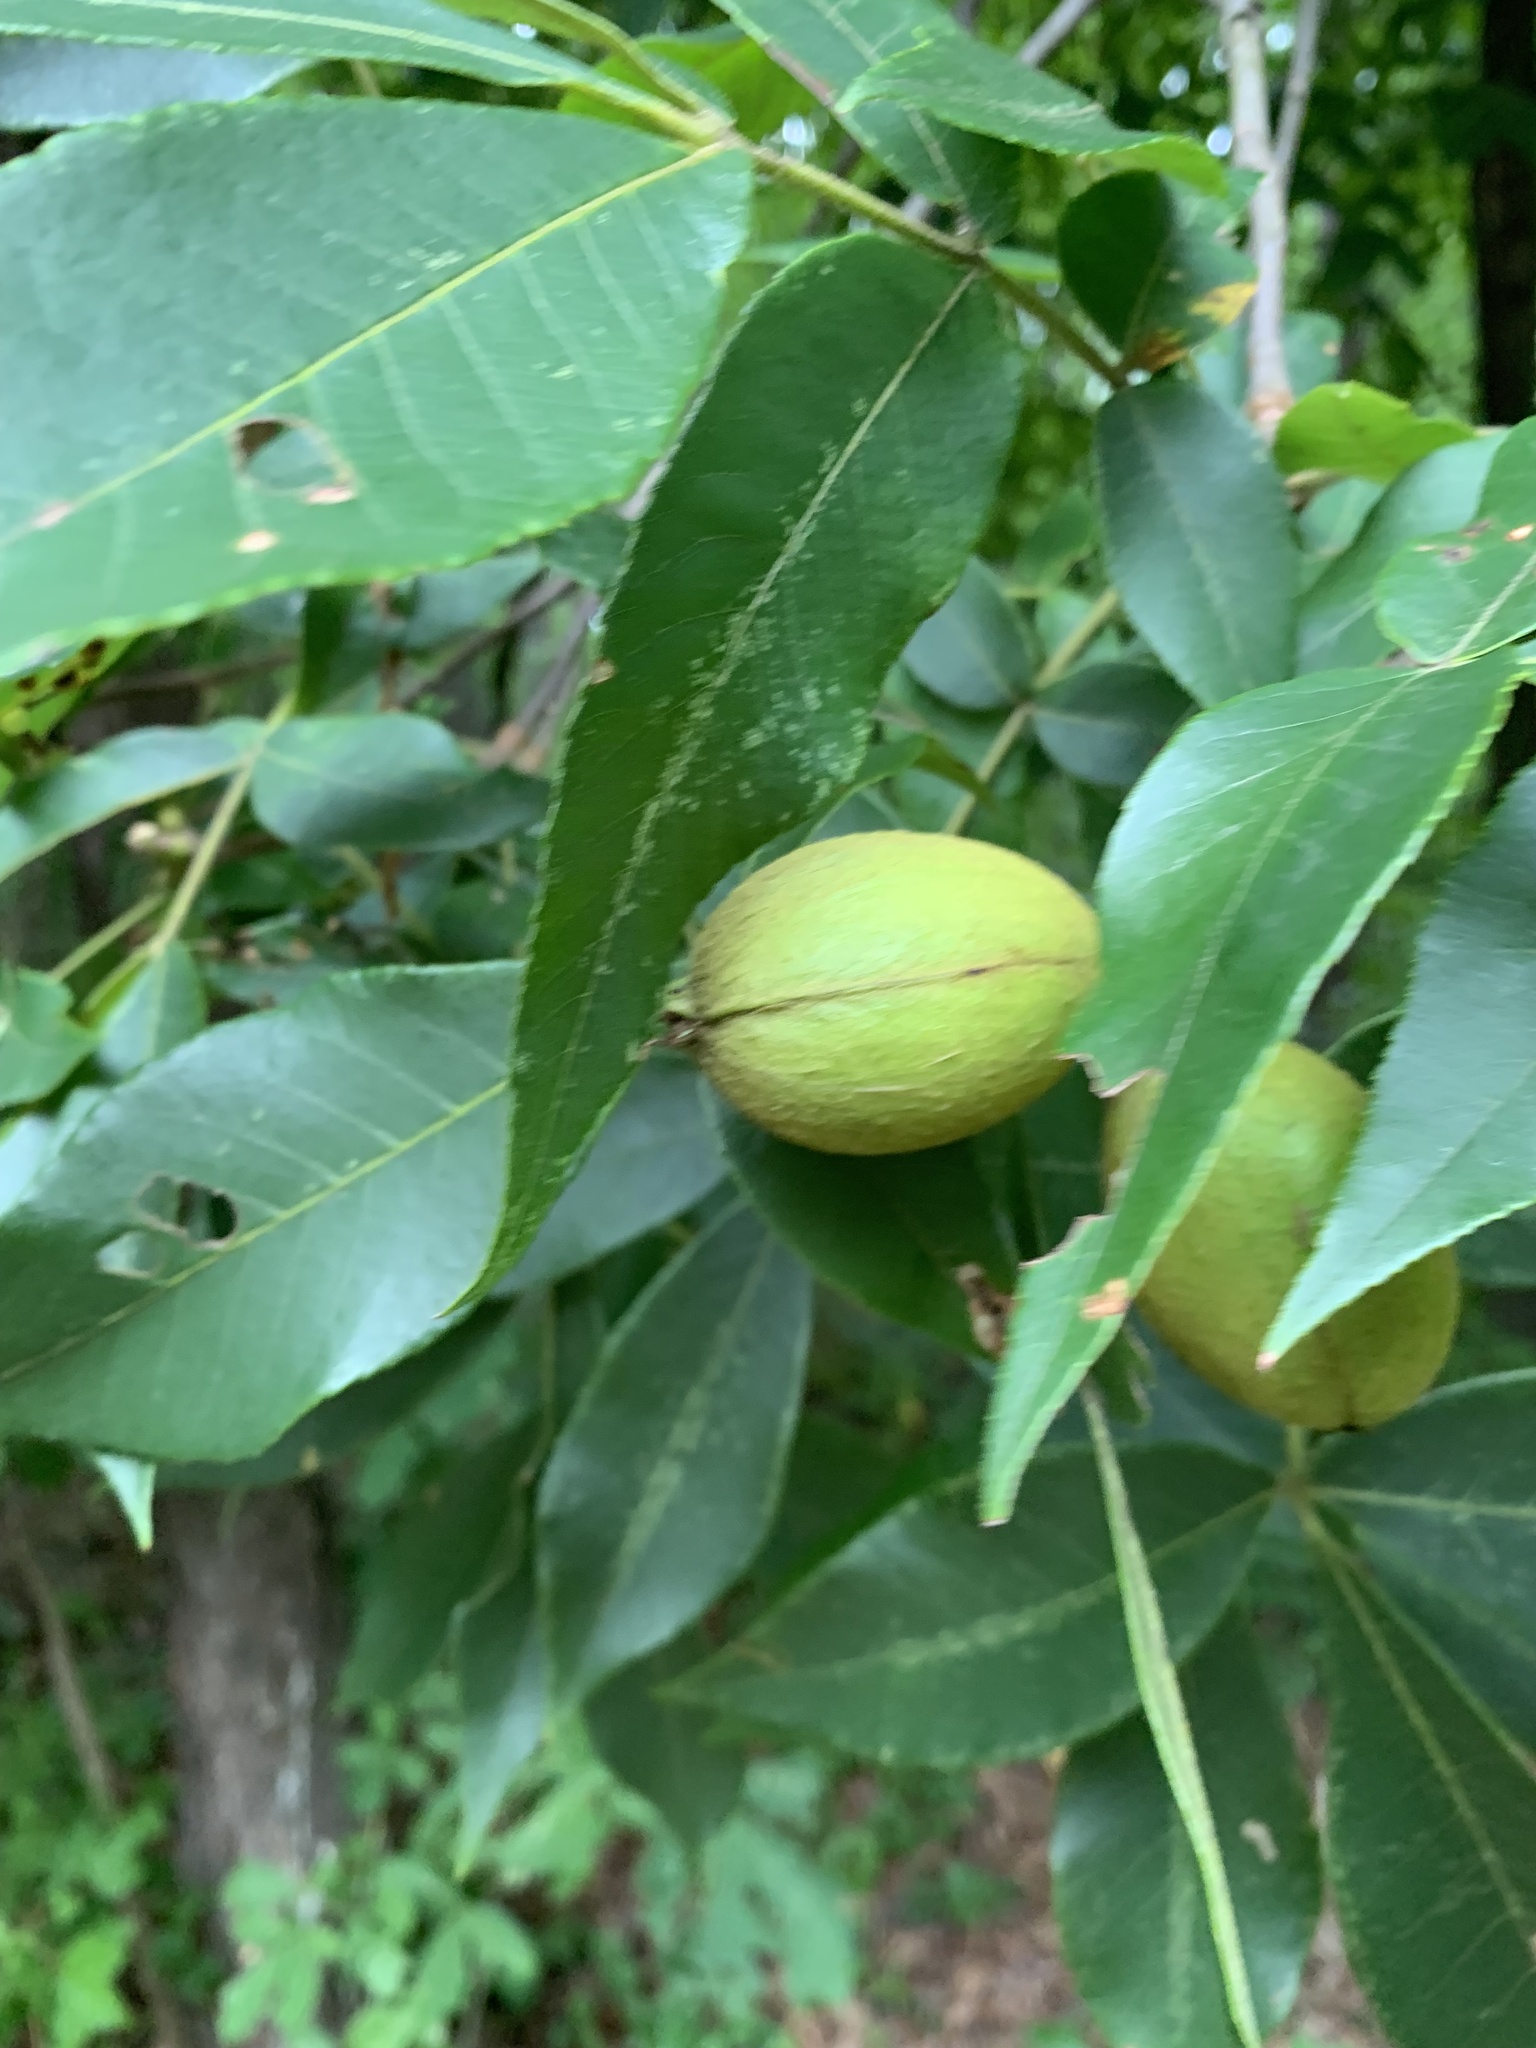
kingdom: Plantae
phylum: Tracheophyta
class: Magnoliopsida
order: Fagales
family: Juglandaceae
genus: Carya
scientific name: Carya glabra
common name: Pignut hickory
